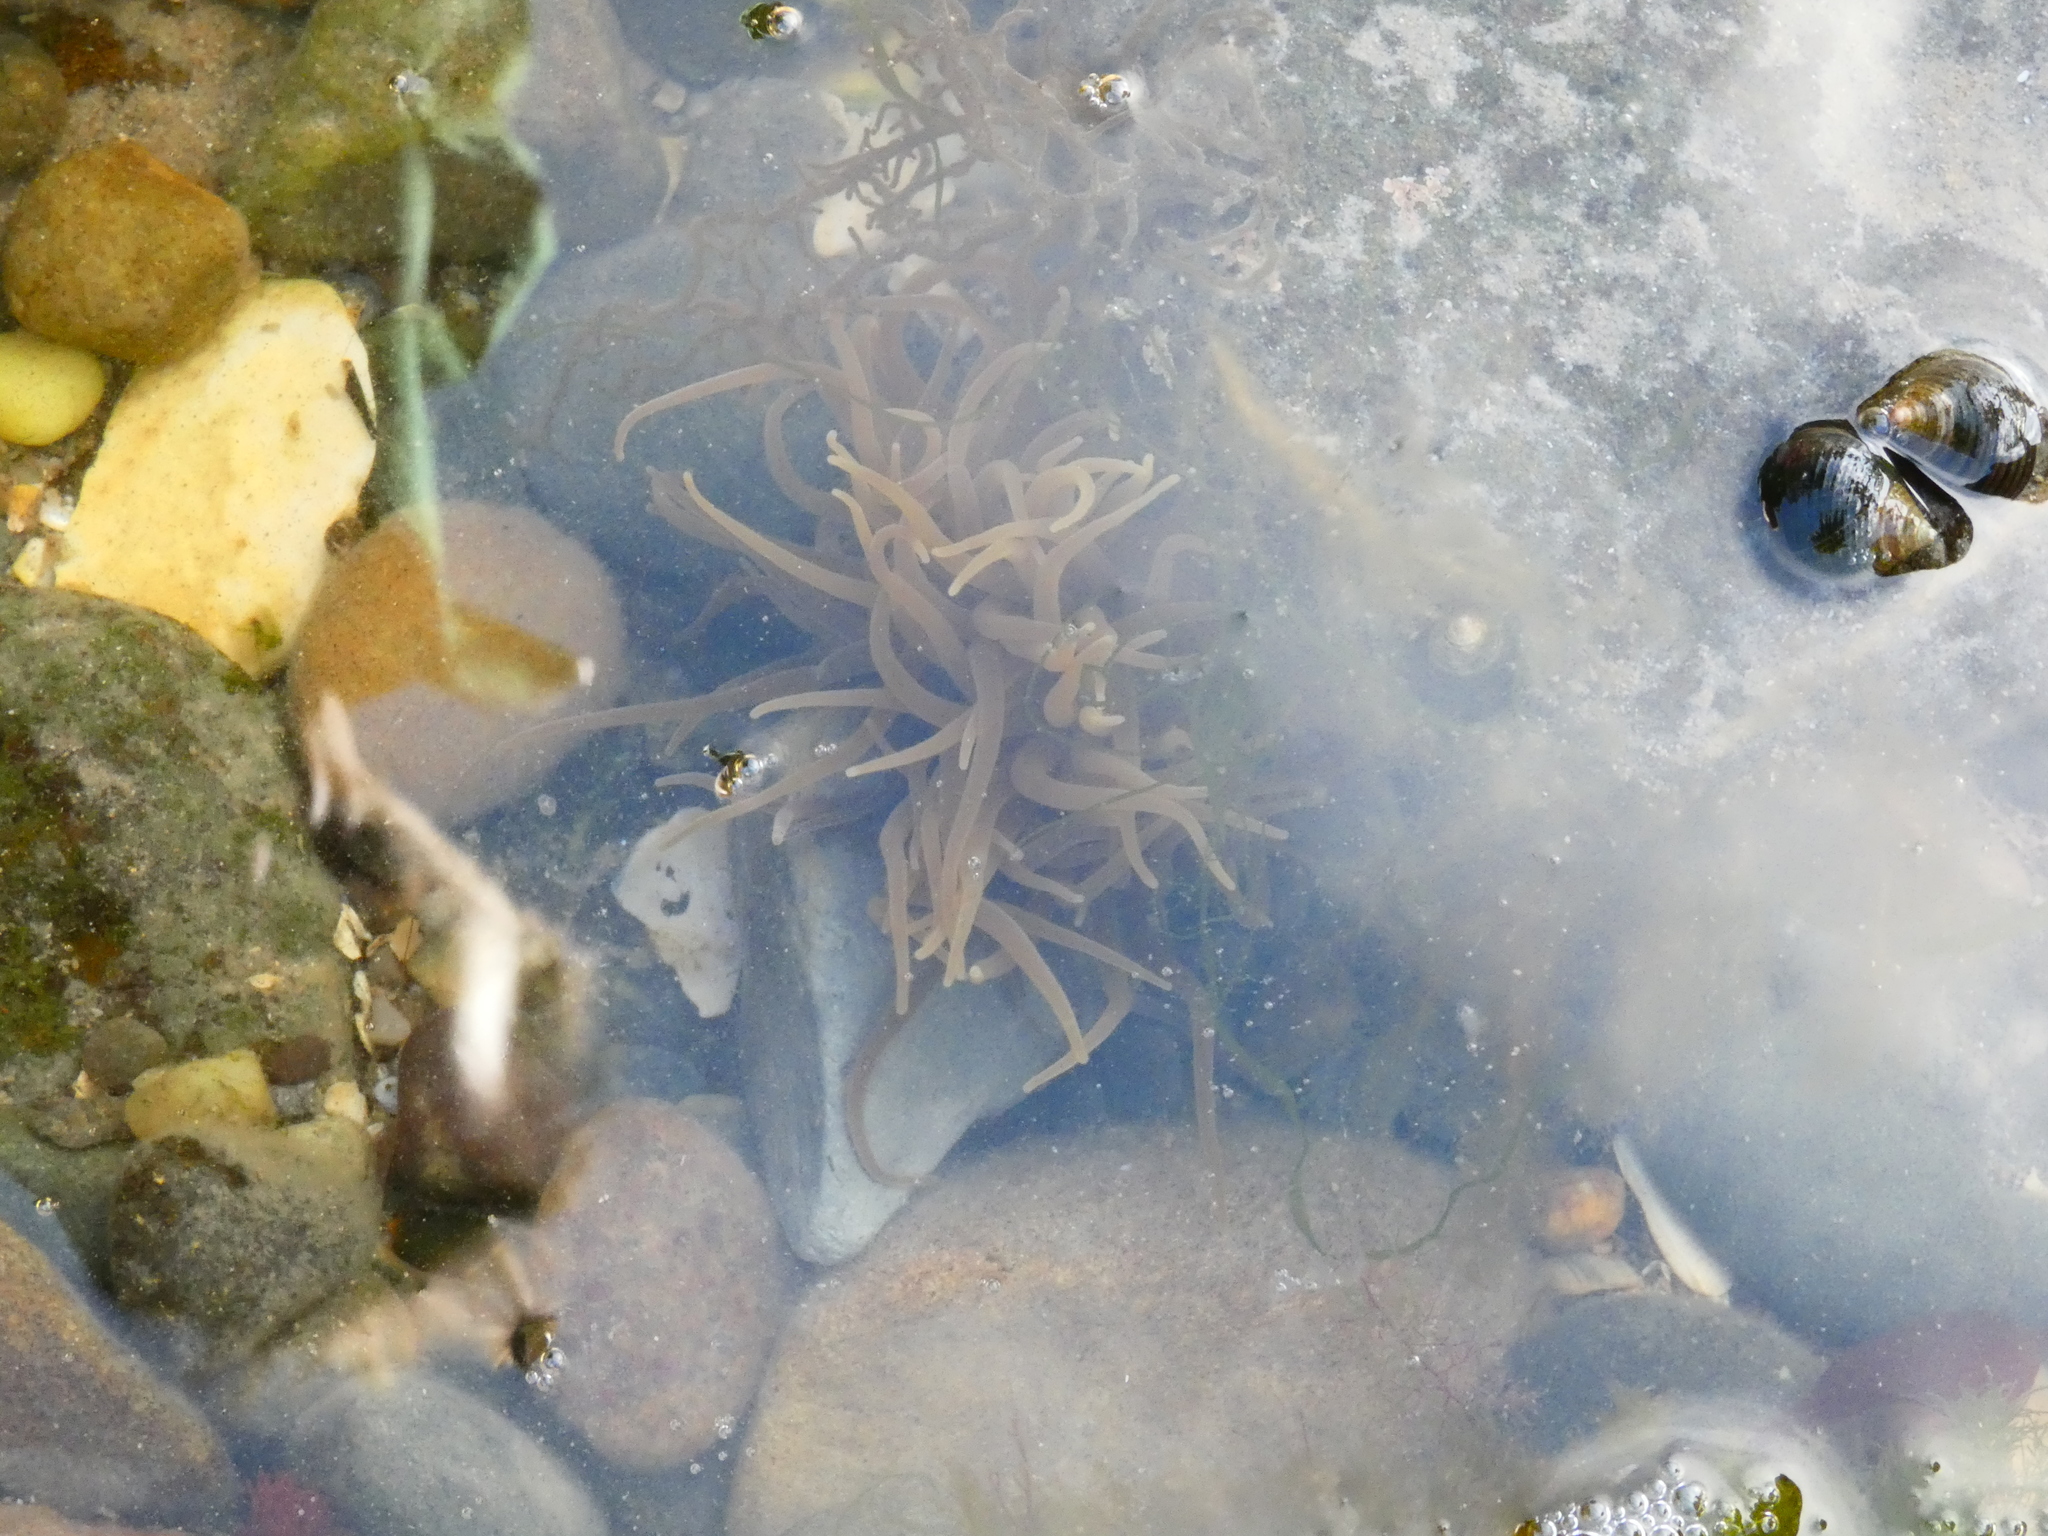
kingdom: Animalia
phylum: Cnidaria
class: Anthozoa
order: Actiniaria
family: Actiniidae
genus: Anemonia
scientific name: Anemonia viridis
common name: Snakelocks anemone
